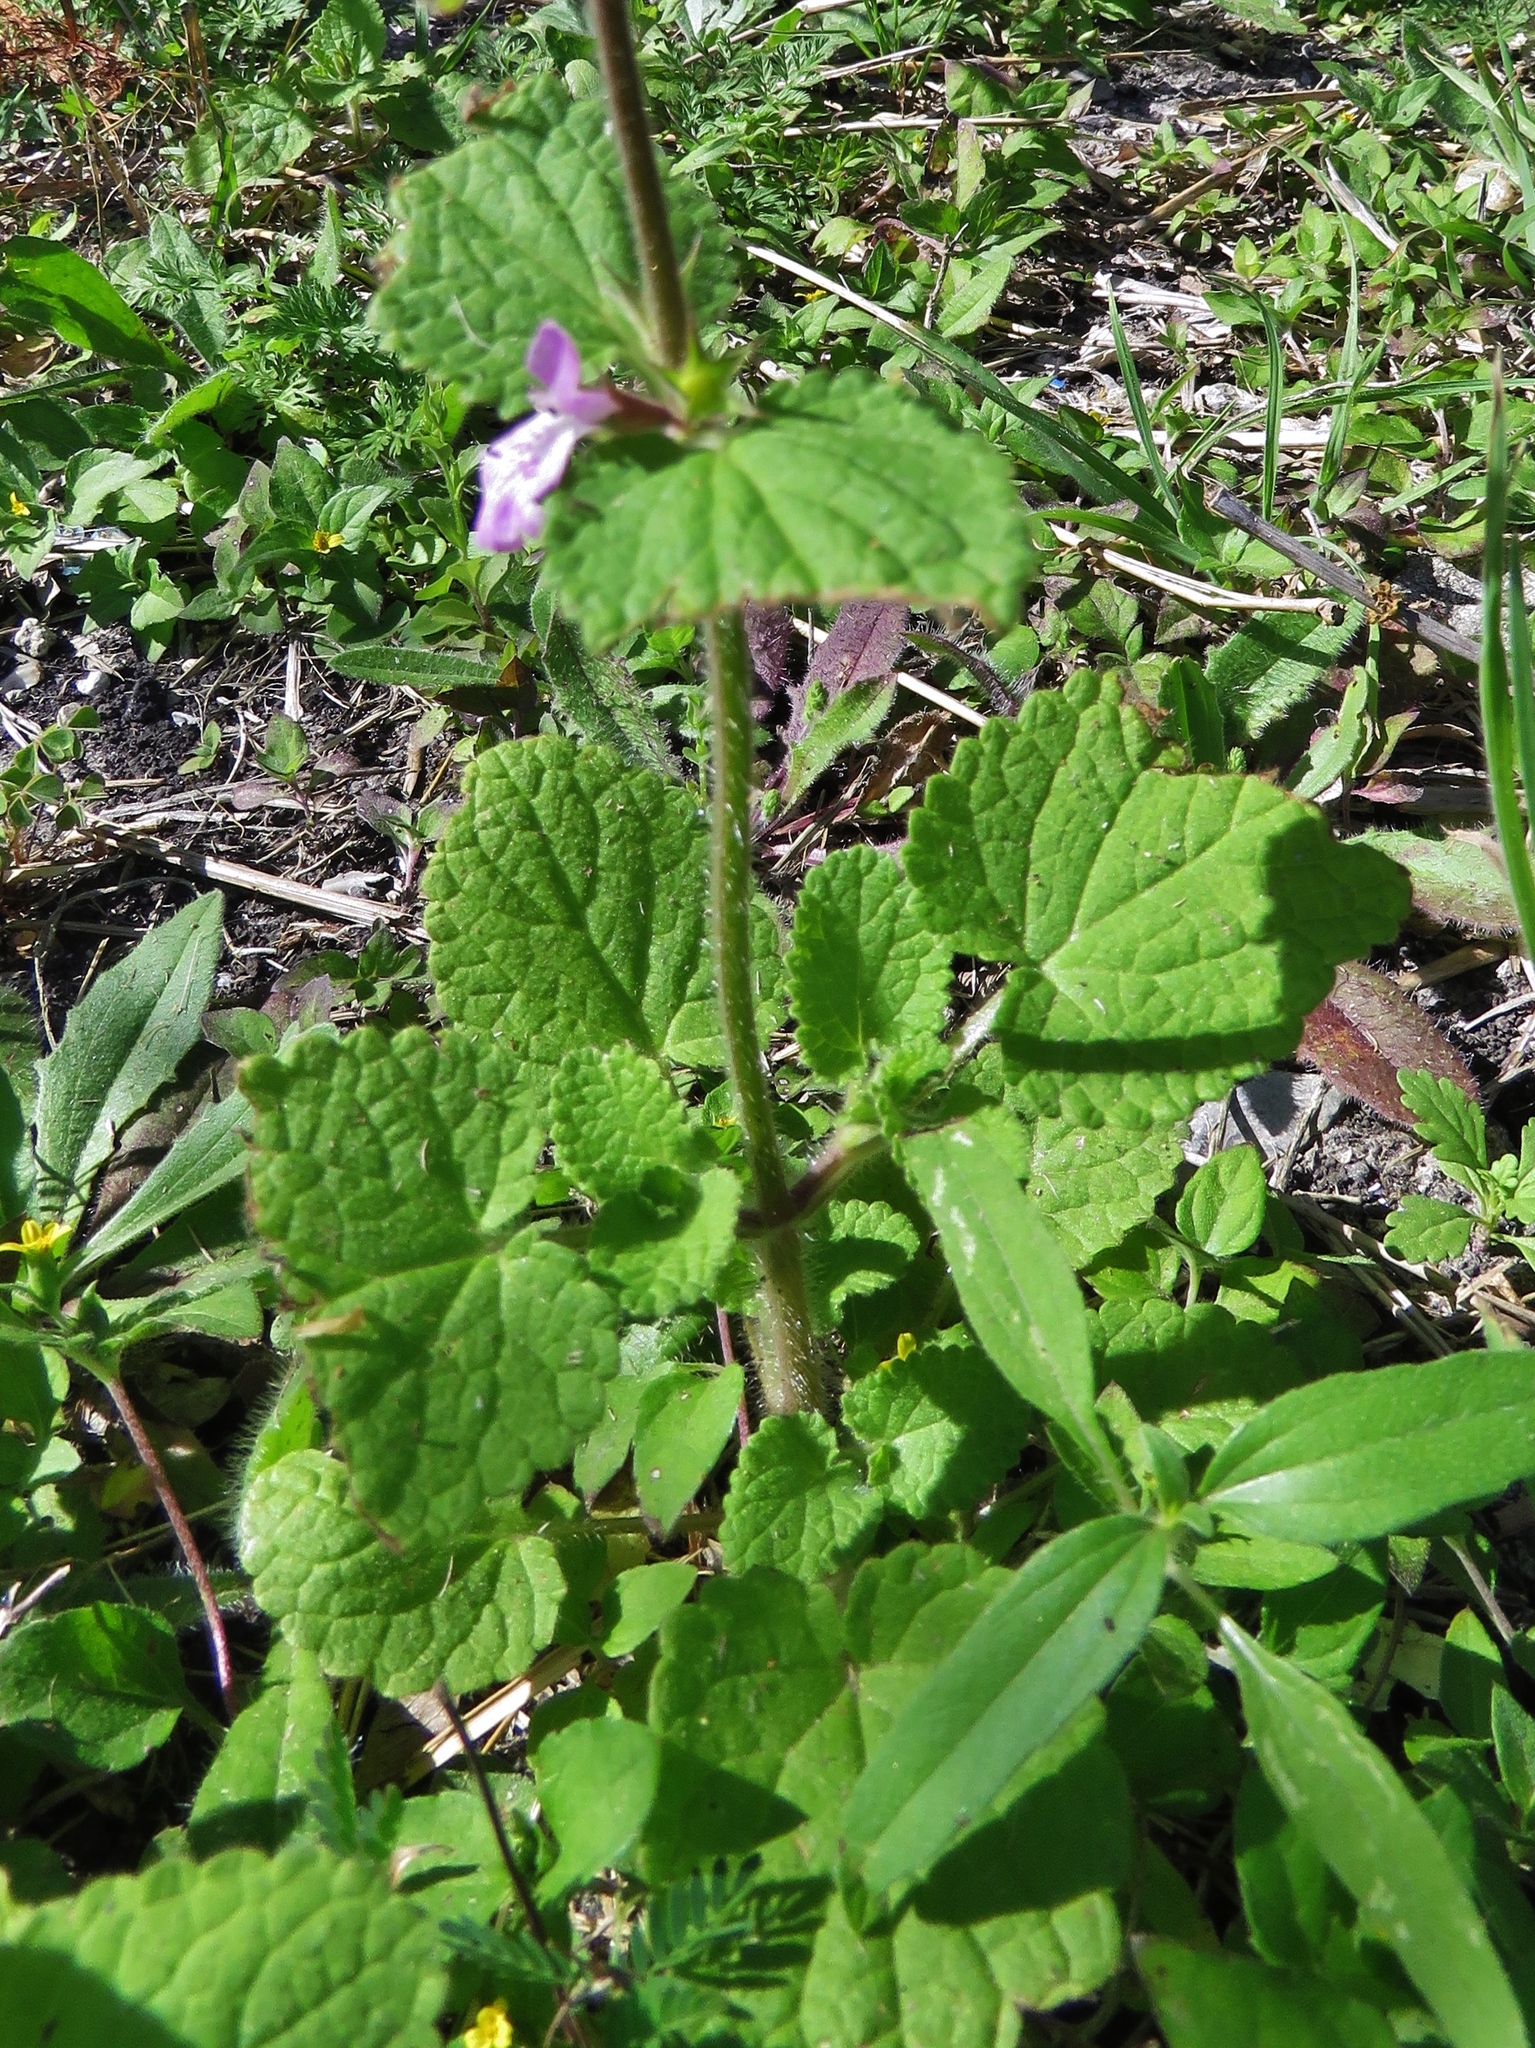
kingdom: Plantae
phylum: Tracheophyta
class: Magnoliopsida
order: Lamiales
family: Lamiaceae
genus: Stachys
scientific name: Stachys drummondii
